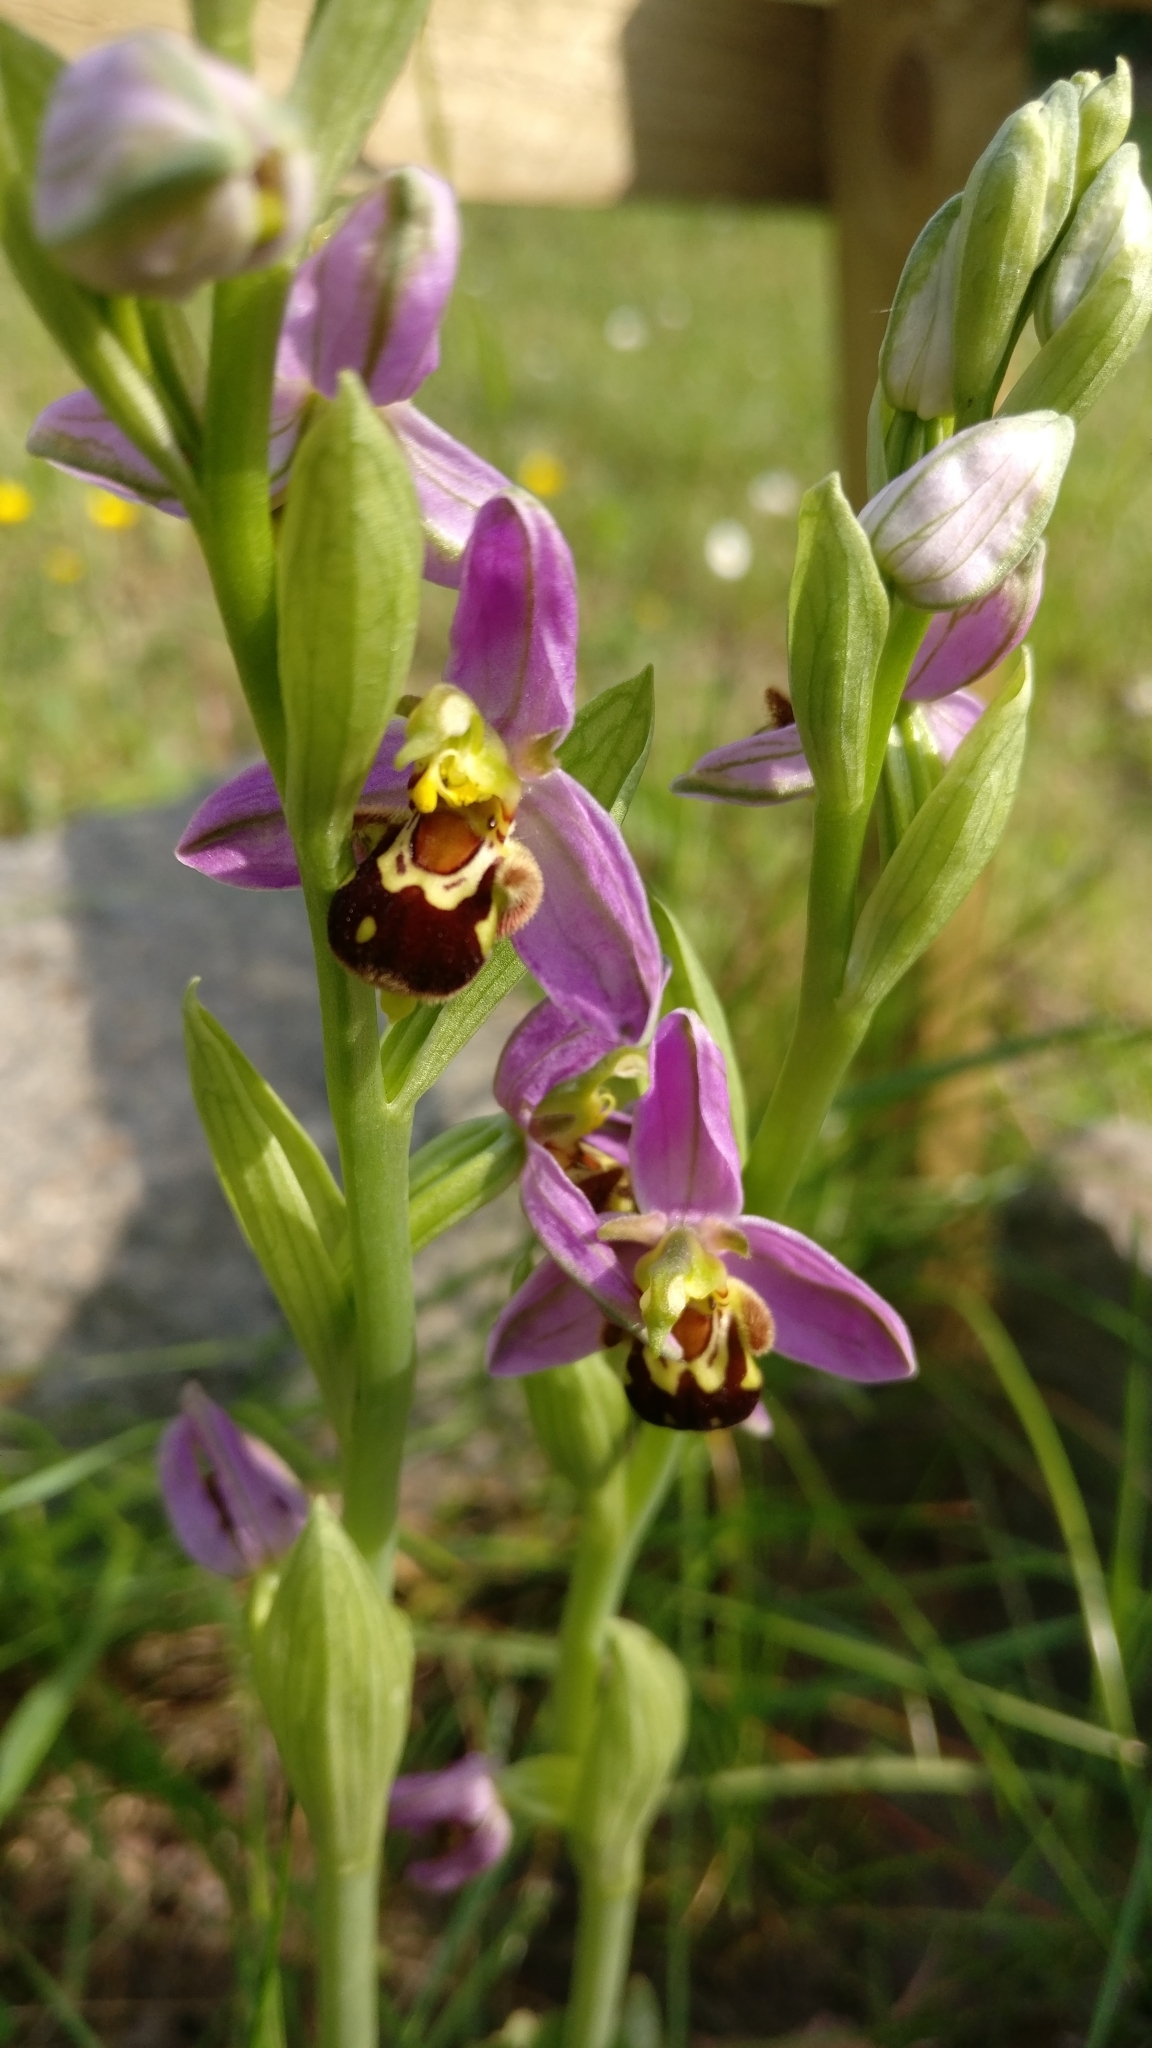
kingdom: Plantae
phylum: Tracheophyta
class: Liliopsida
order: Asparagales
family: Orchidaceae
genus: Ophrys
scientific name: Ophrys apifera
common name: Bee orchid
